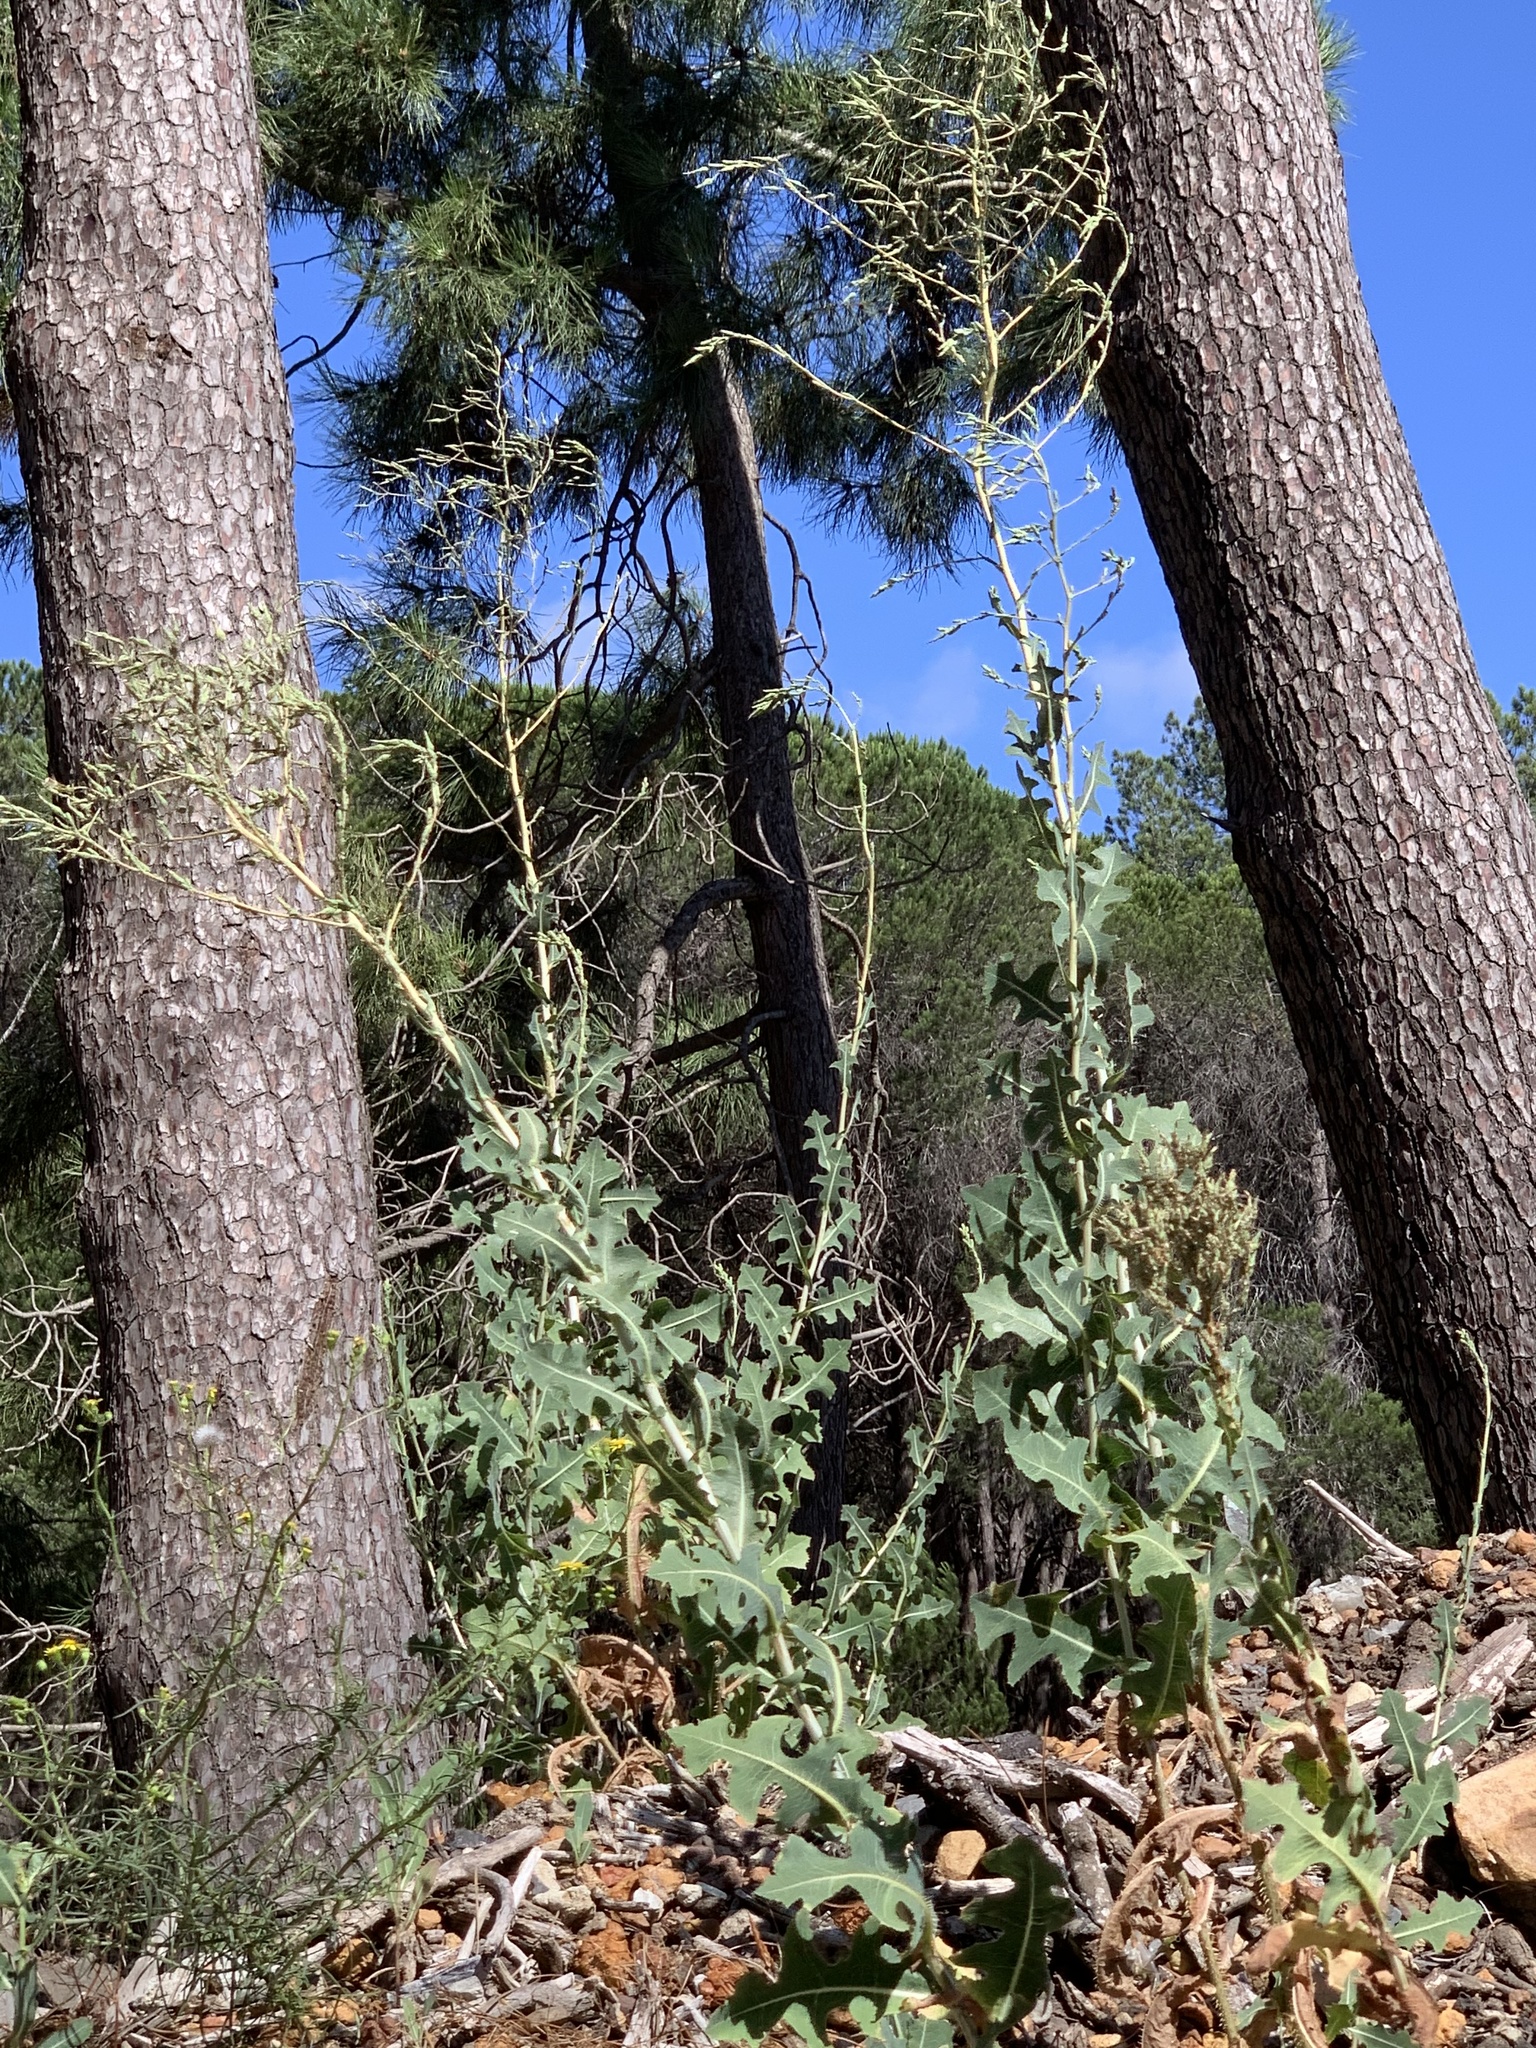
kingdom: Plantae
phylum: Tracheophyta
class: Magnoliopsida
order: Asterales
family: Asteraceae
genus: Lactuca
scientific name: Lactuca serriola
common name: Prickly lettuce
